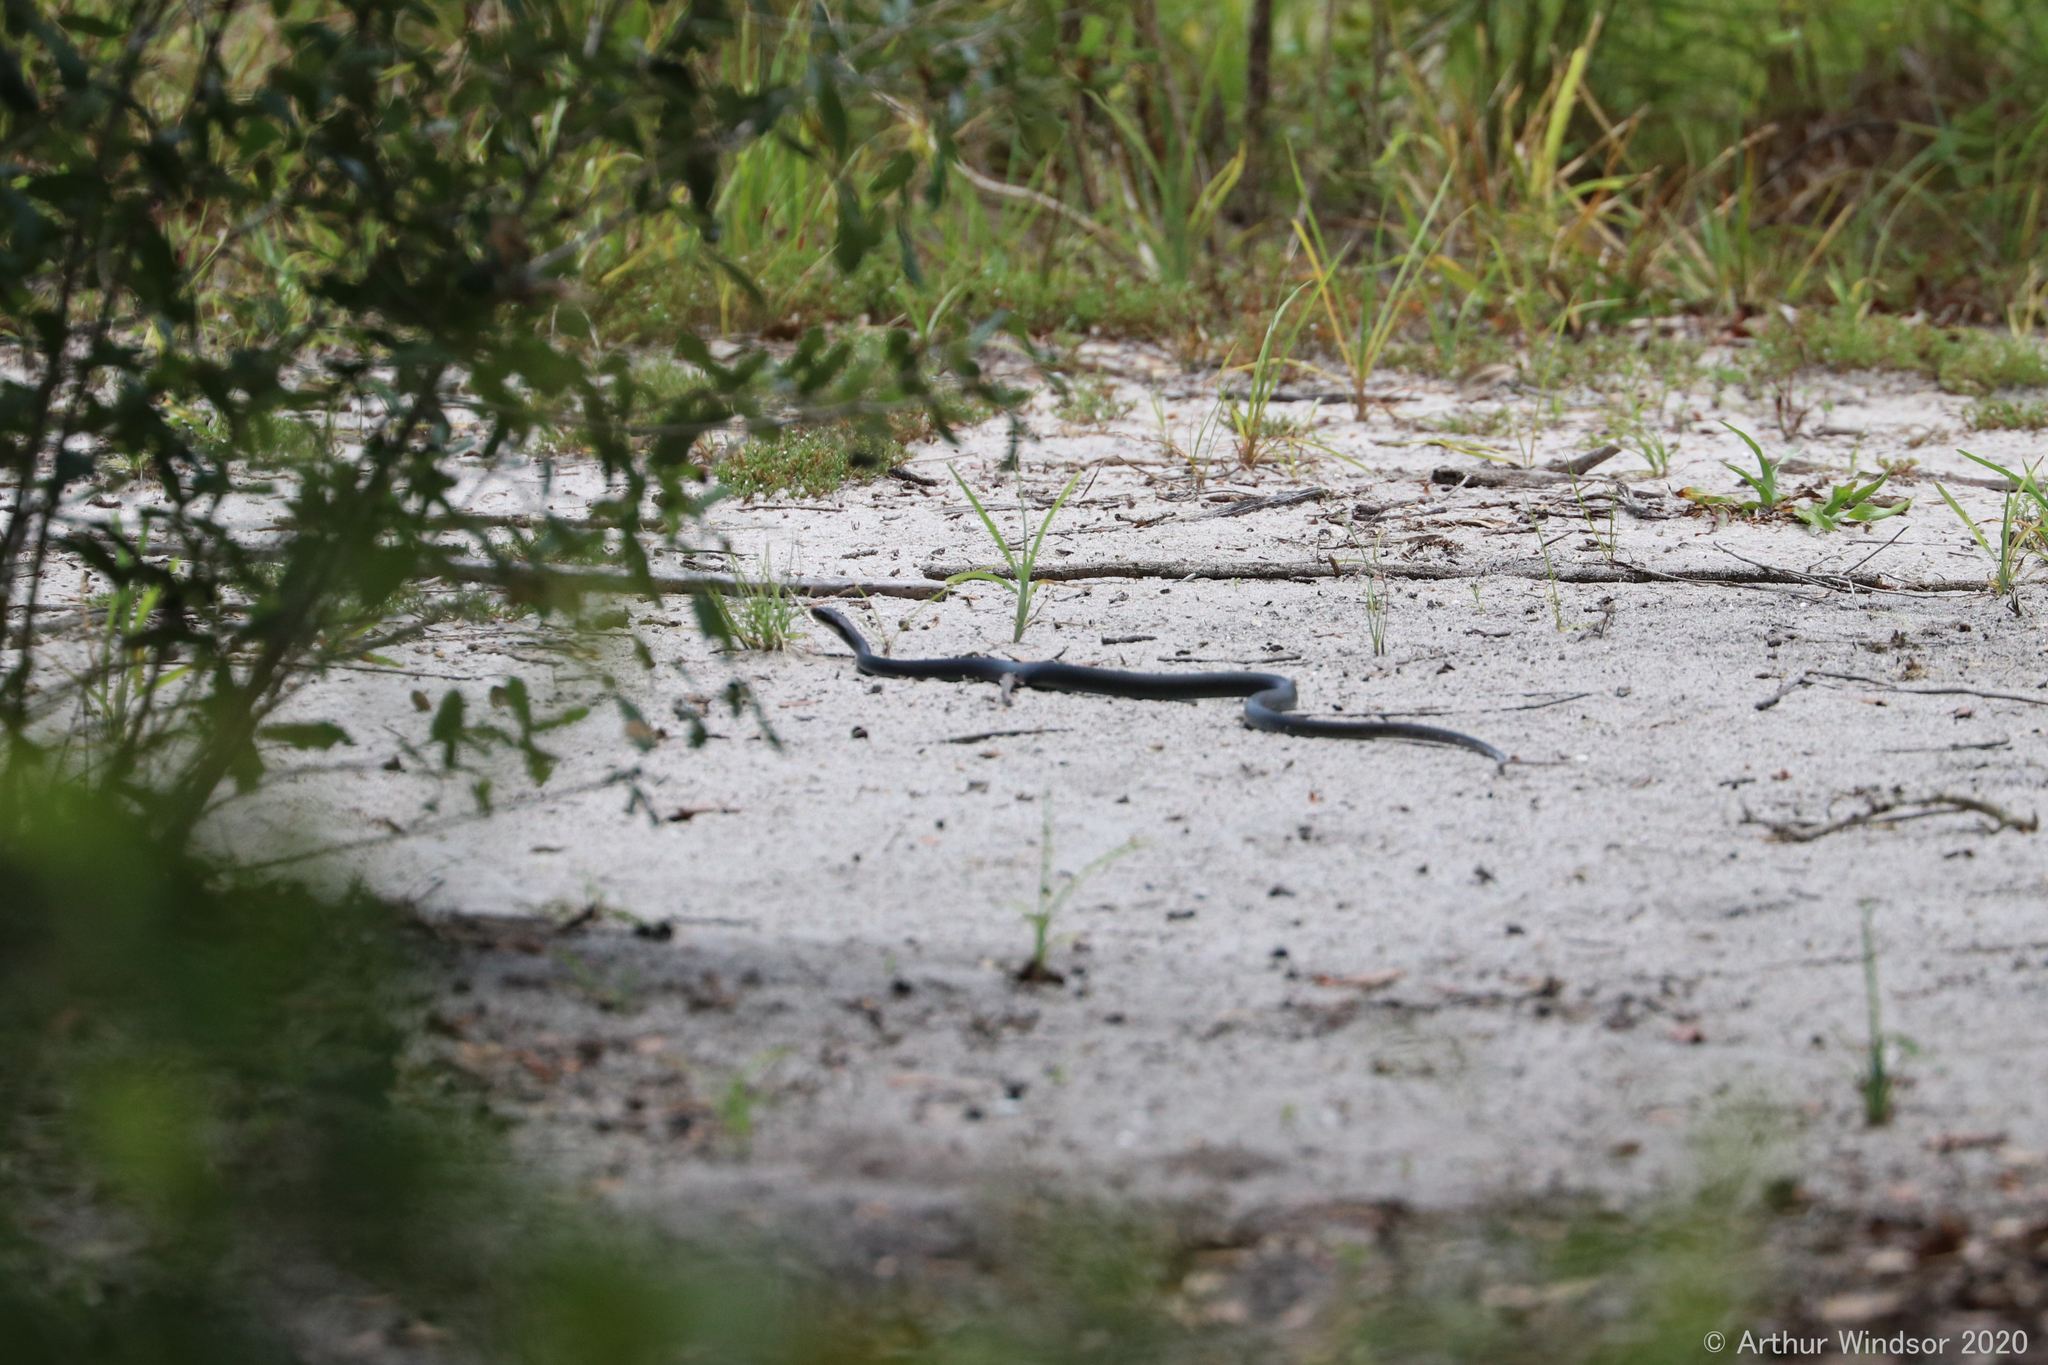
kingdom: Animalia
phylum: Chordata
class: Squamata
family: Colubridae
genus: Coluber
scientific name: Coluber constrictor
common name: Eastern racer
